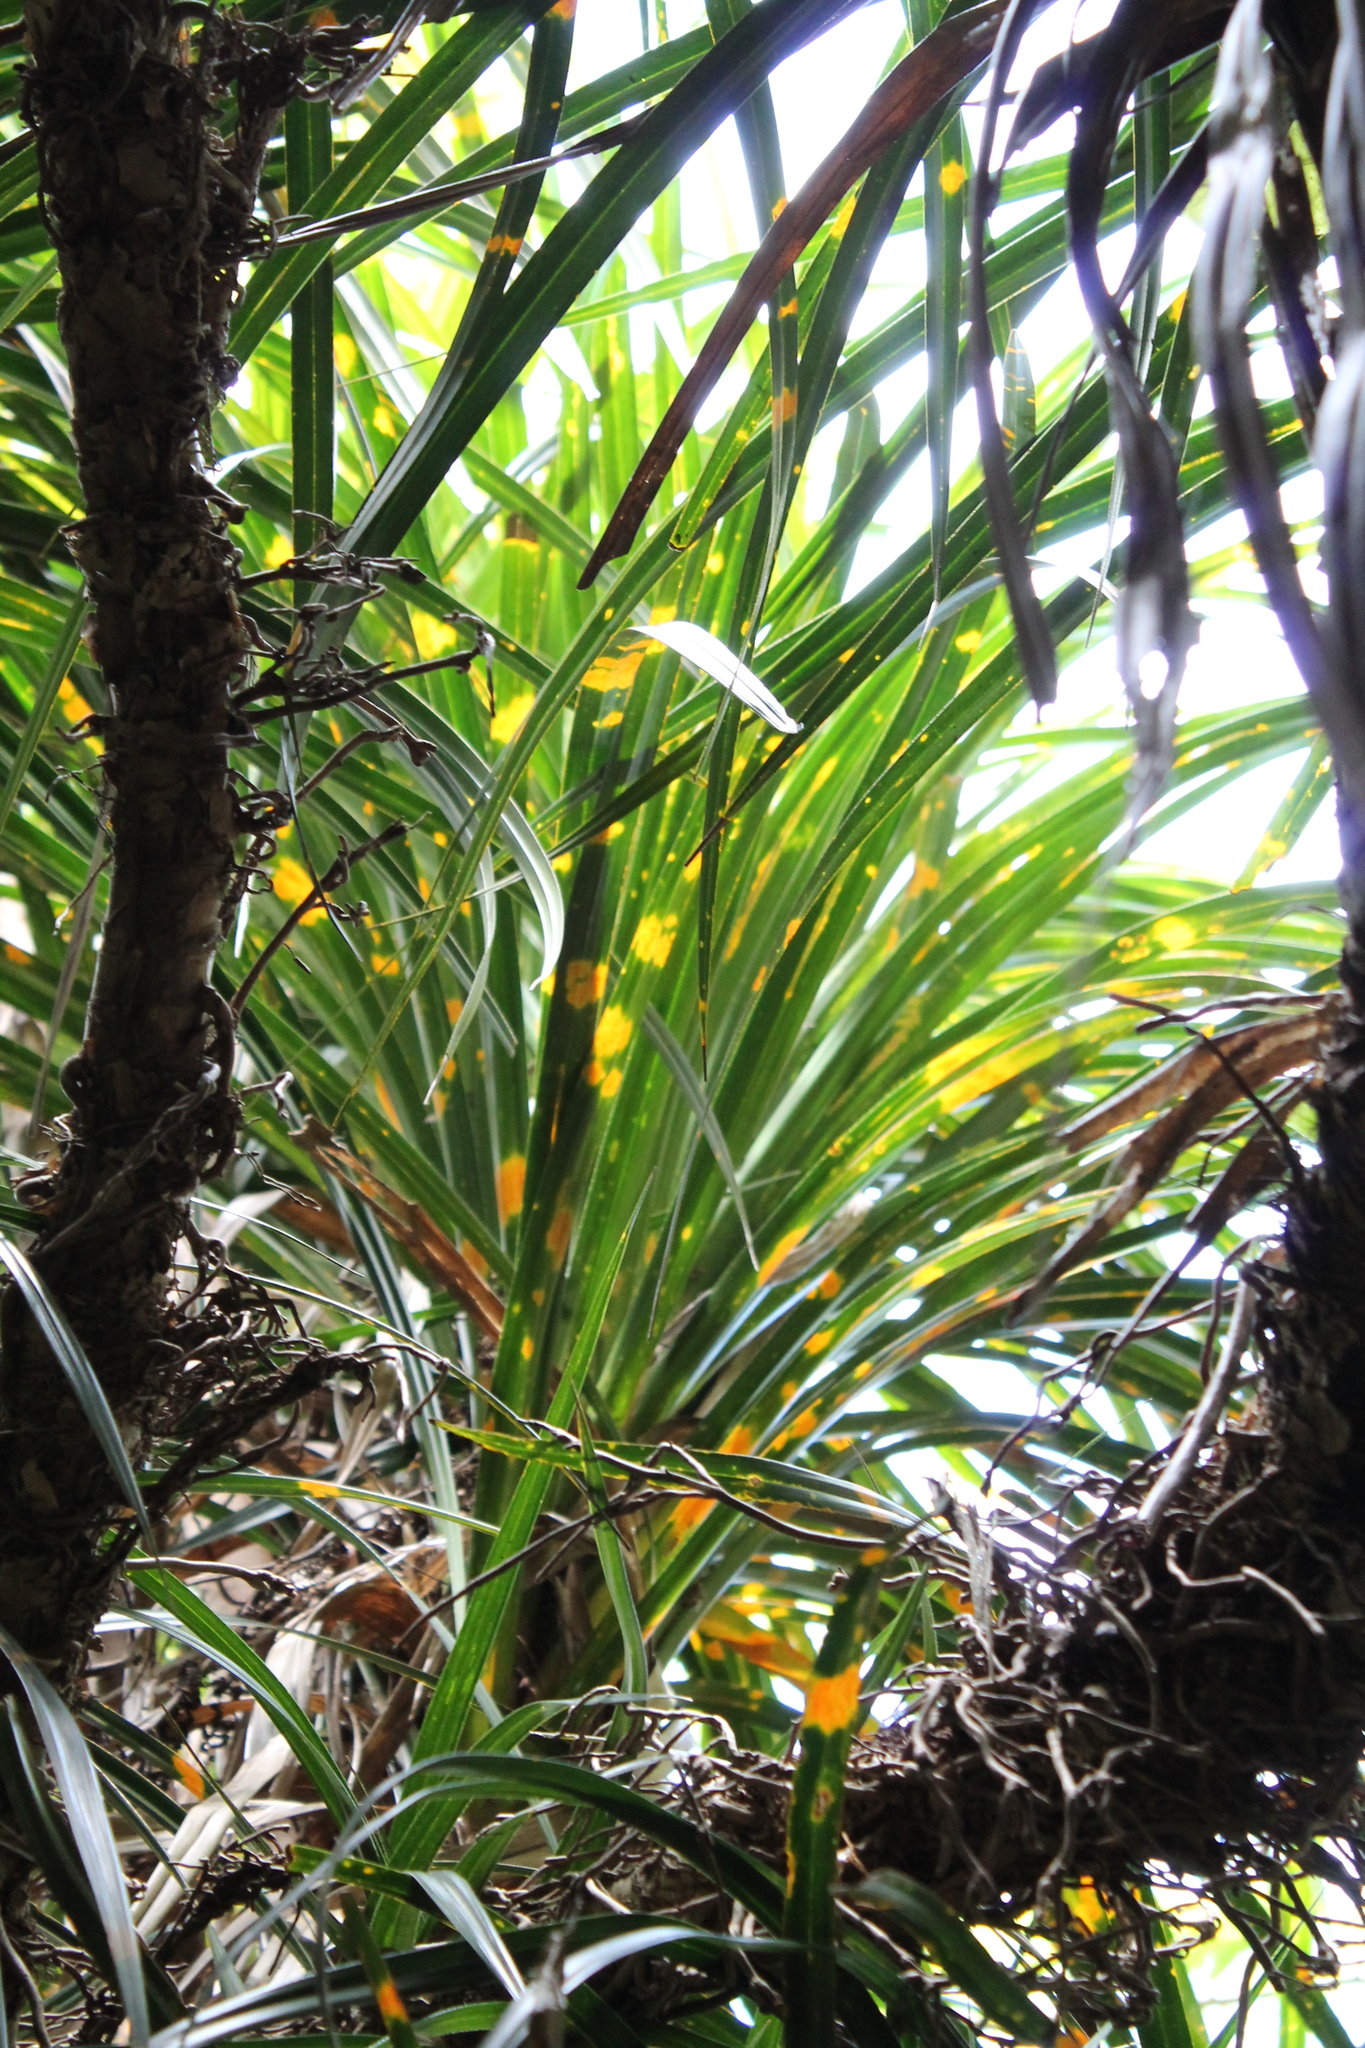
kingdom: Plantae
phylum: Tracheophyta
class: Liliopsida
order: Pandanales
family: Pandanaceae
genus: Freycinetia
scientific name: Freycinetia banksii
